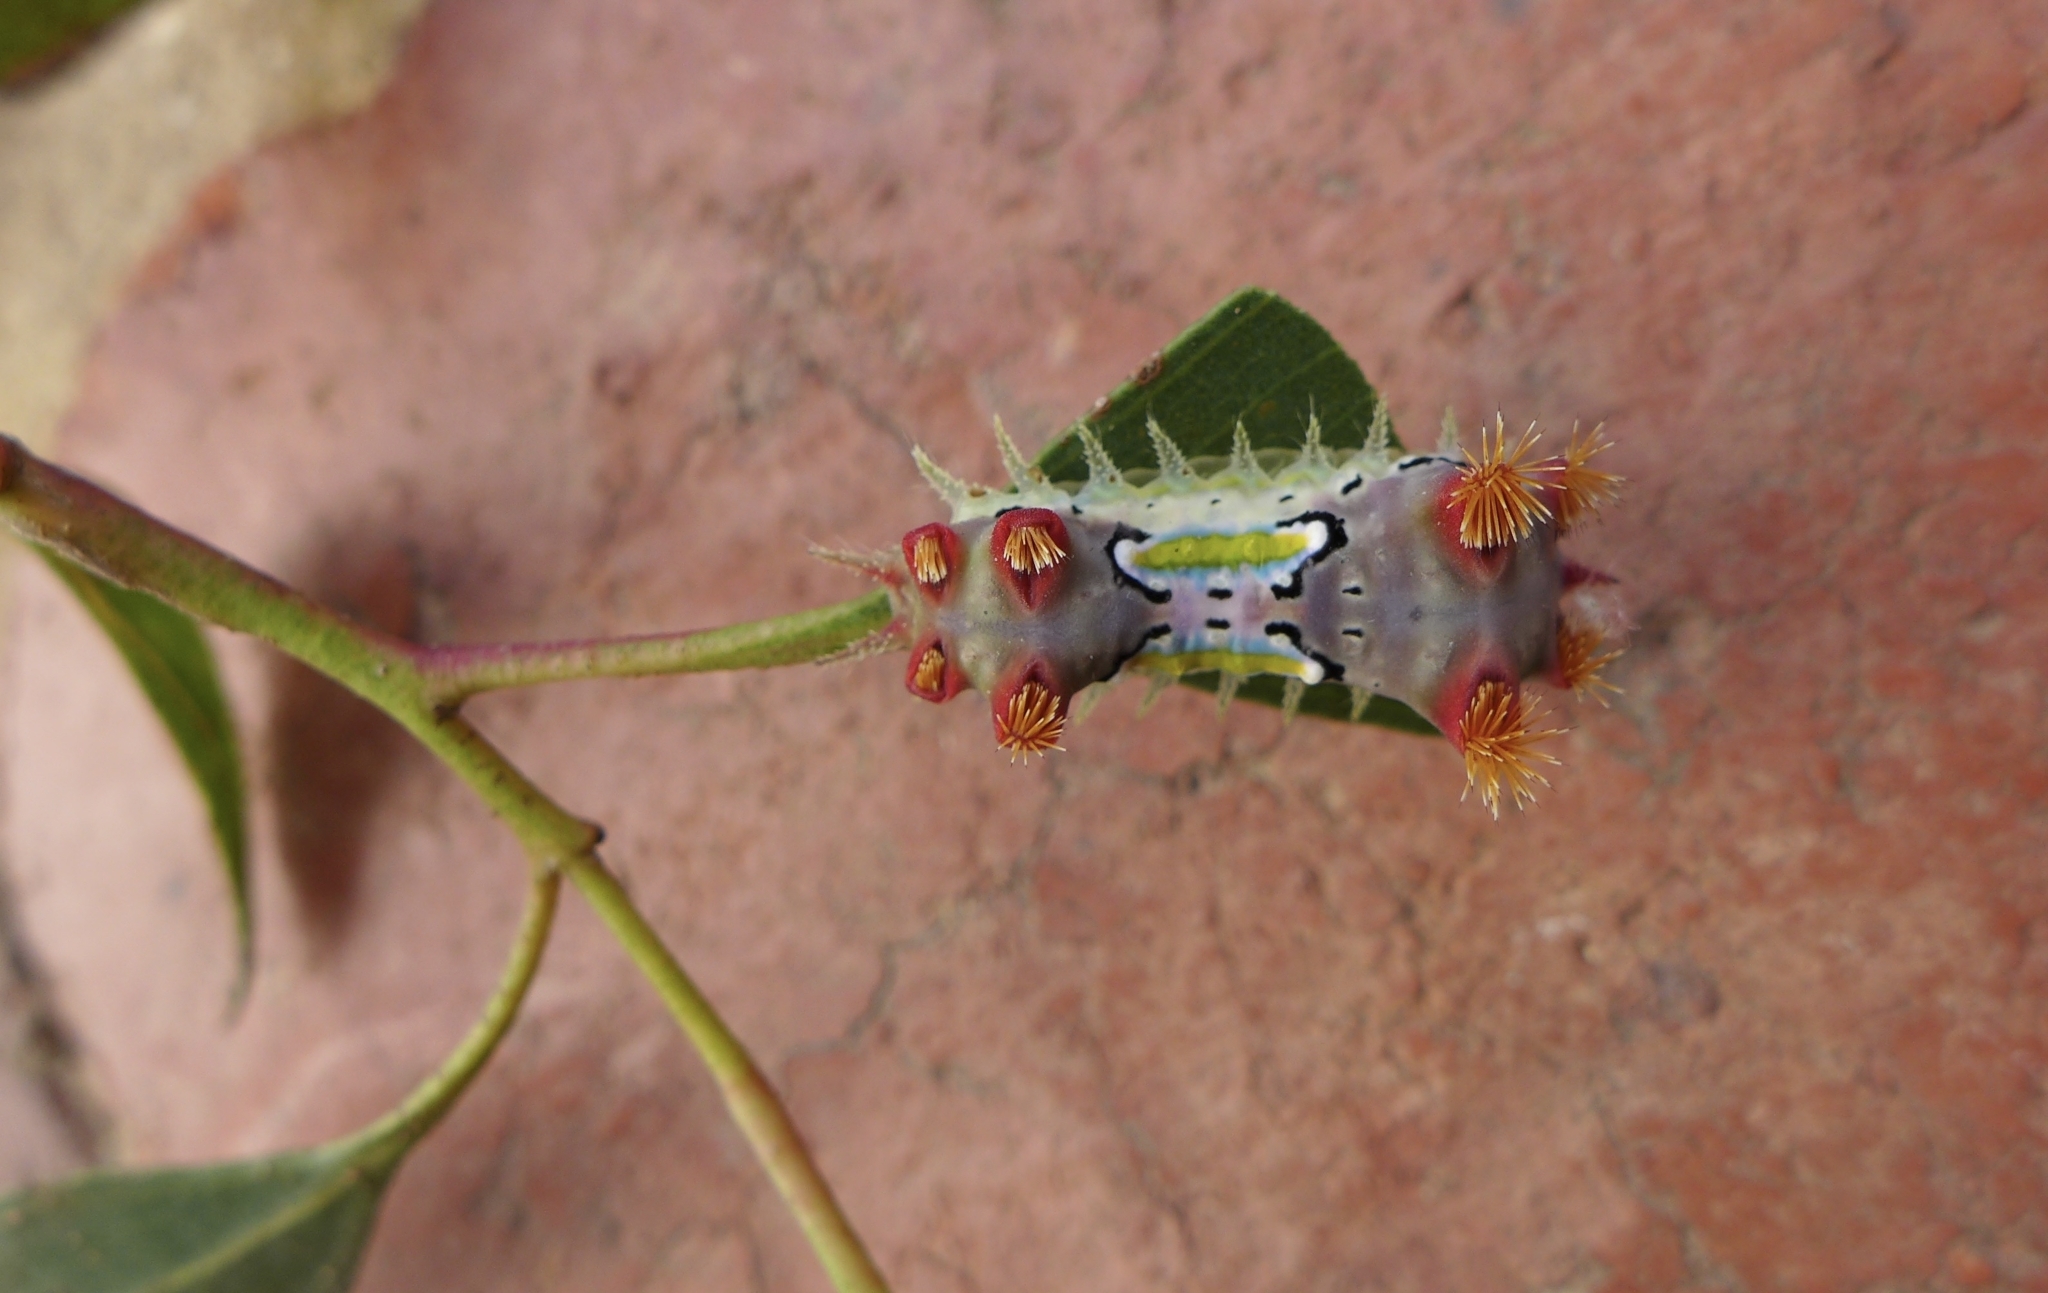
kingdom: Animalia
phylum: Arthropoda
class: Insecta
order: Lepidoptera
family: Limacodidae
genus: Doratifera
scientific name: Doratifera vulnerans
